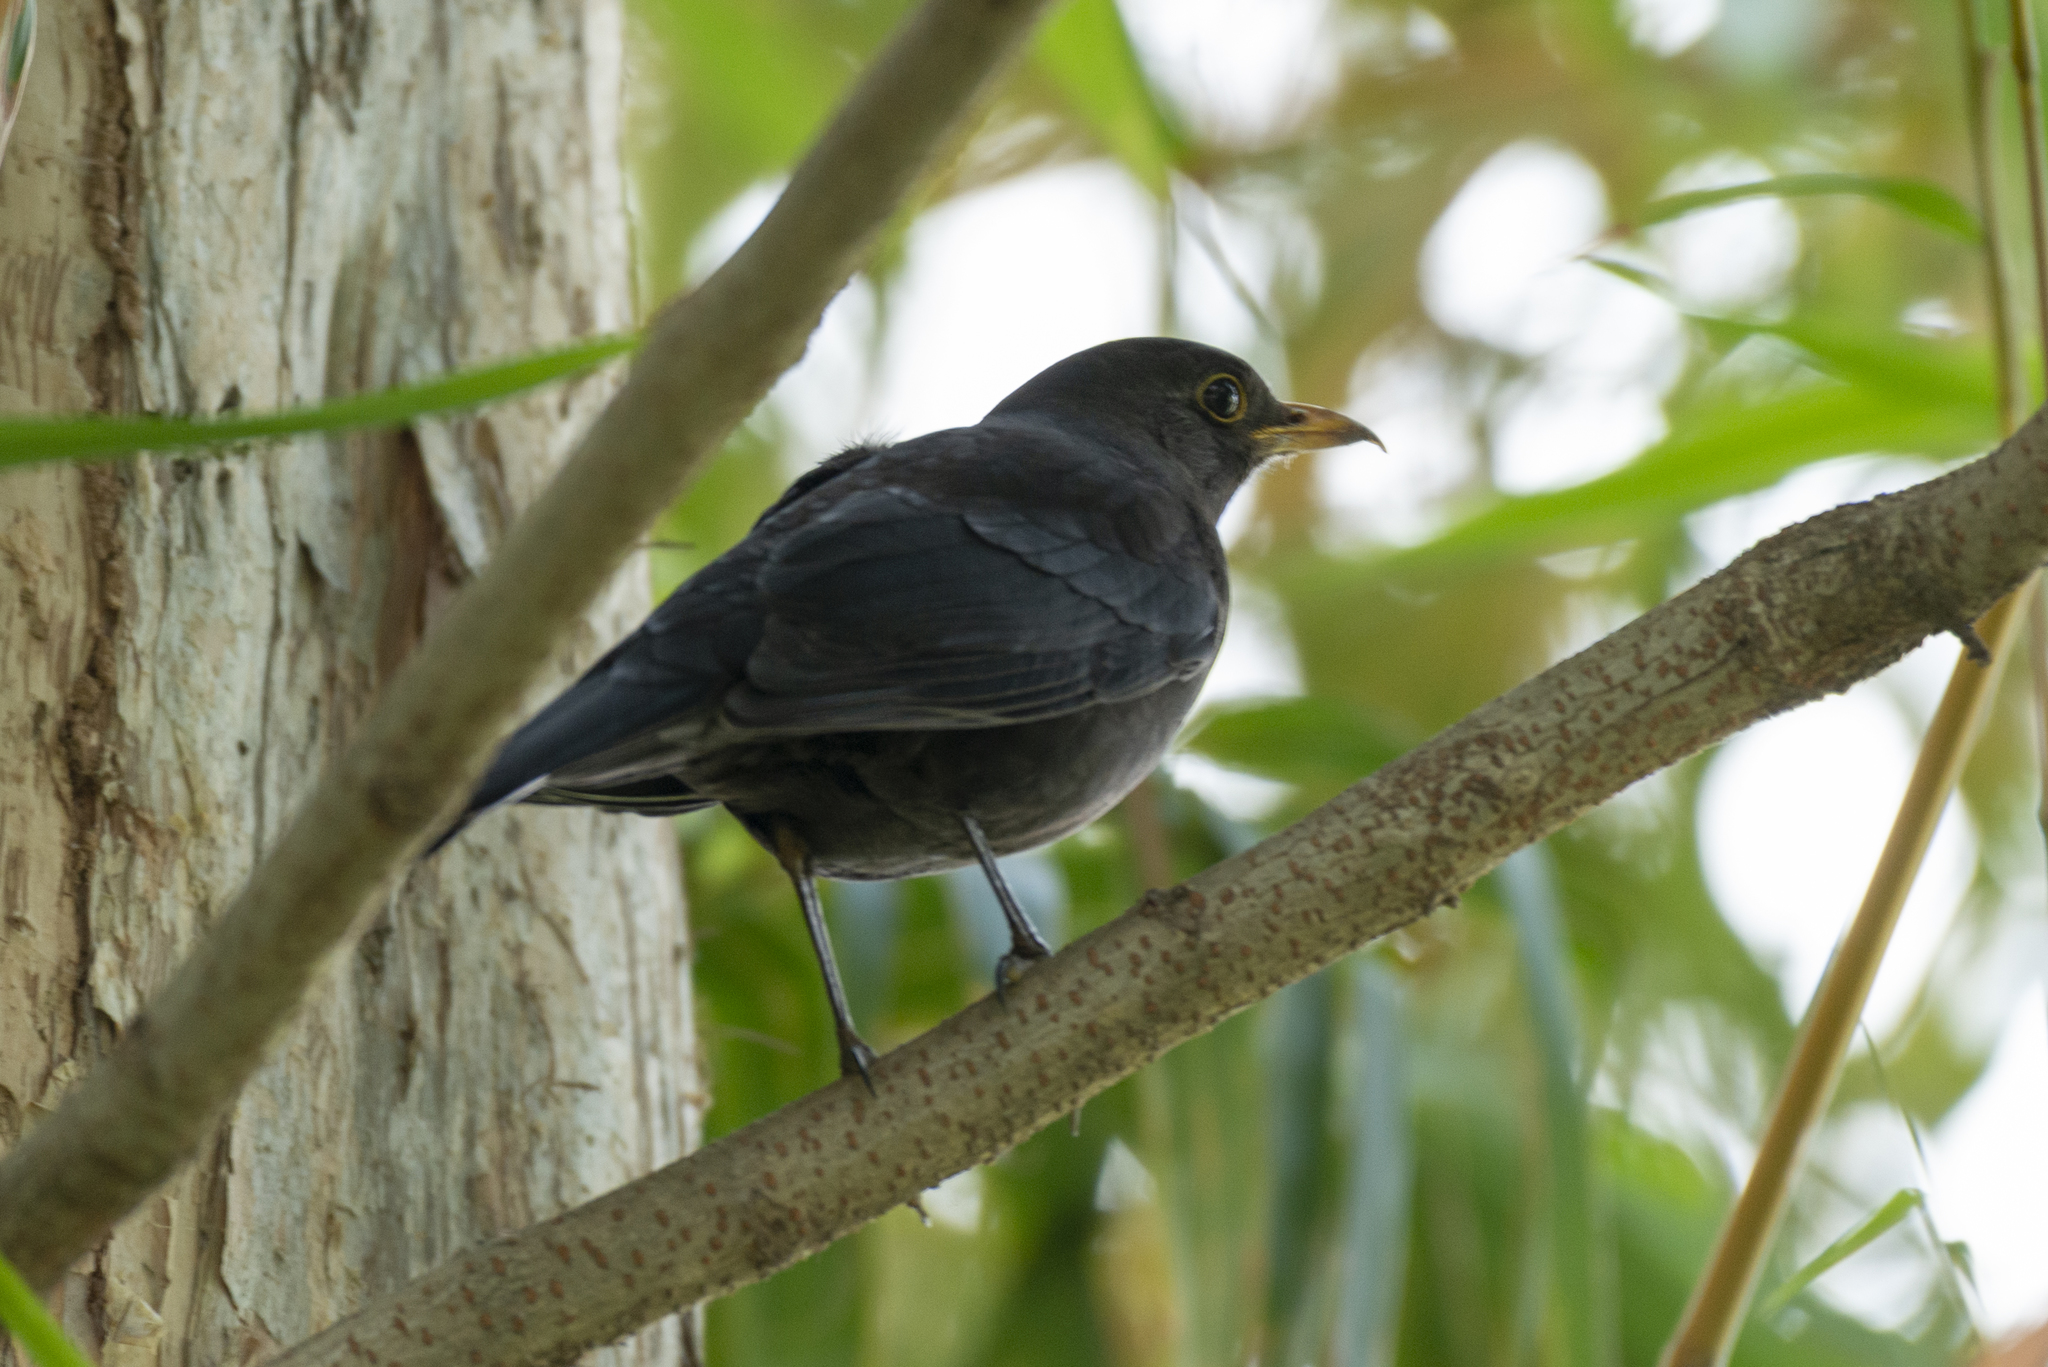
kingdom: Animalia
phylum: Chordata
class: Aves
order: Passeriformes
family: Turdidae
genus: Turdus
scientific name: Turdus mandarinus
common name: Chinese blackbird
